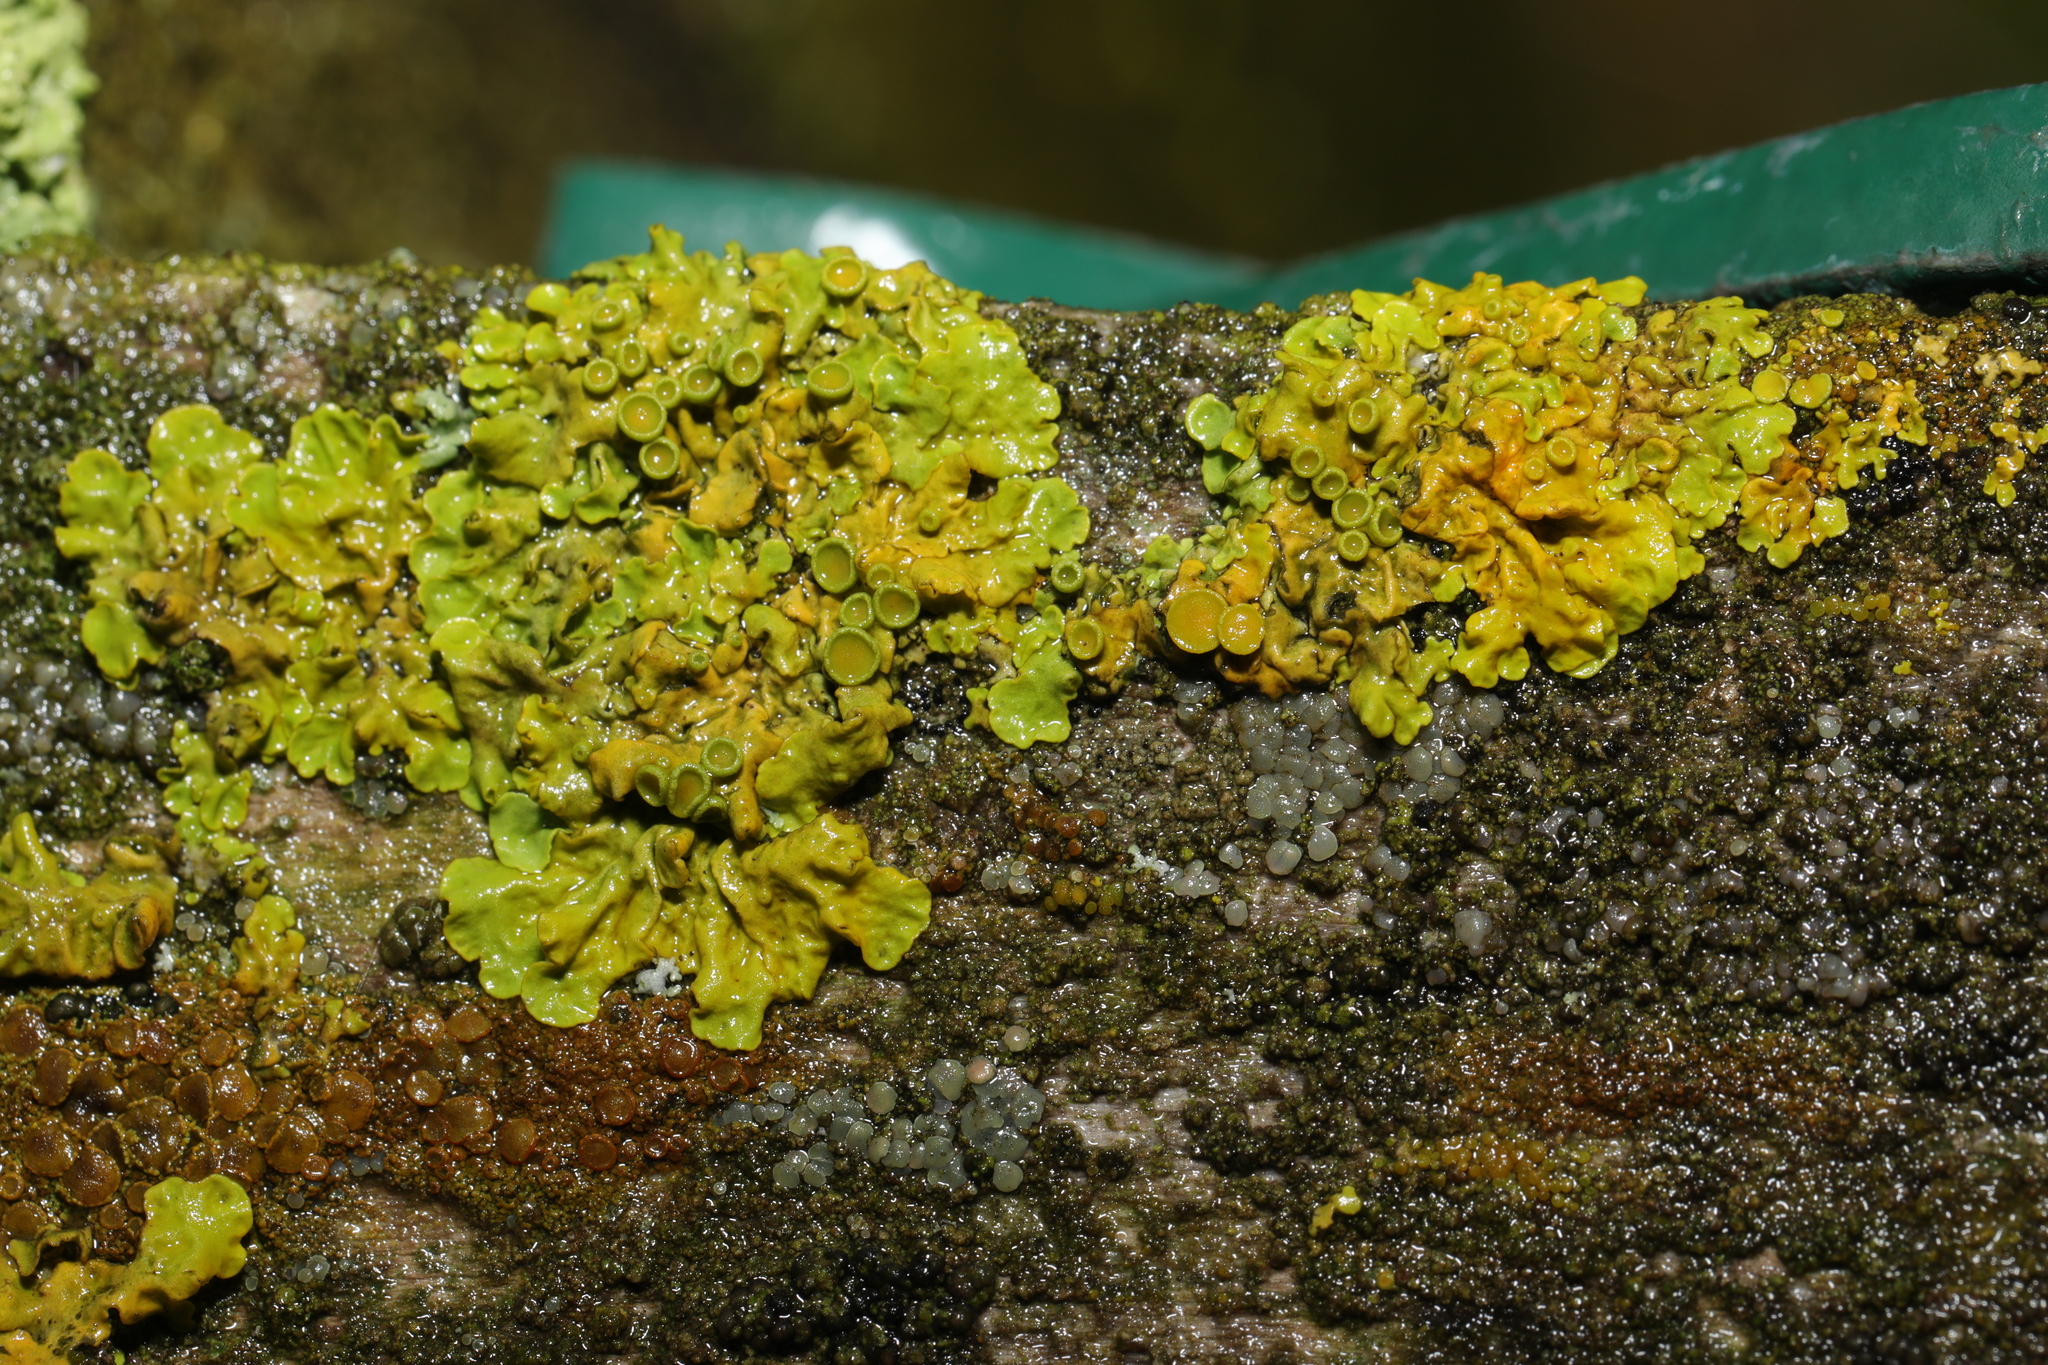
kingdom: Fungi
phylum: Ascomycota
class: Lecanoromycetes
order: Teloschistales
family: Teloschistaceae
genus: Xanthoria
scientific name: Xanthoria parietina
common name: Common orange lichen
